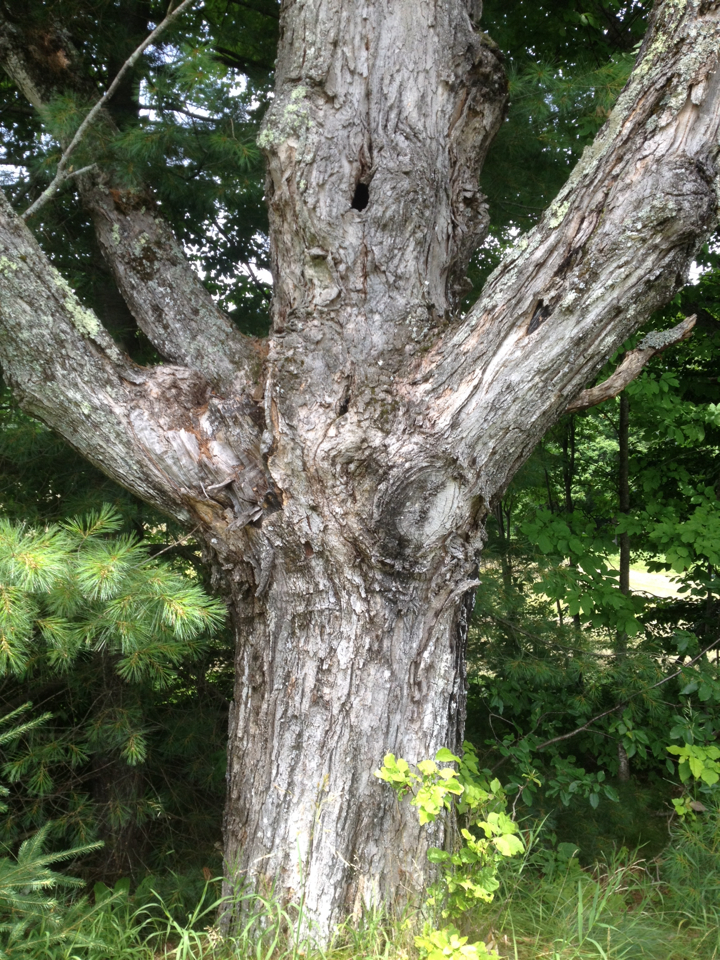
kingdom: Plantae
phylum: Tracheophyta
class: Magnoliopsida
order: Sapindales
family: Sapindaceae
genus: Acer
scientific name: Acer saccharum
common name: Sugar maple
